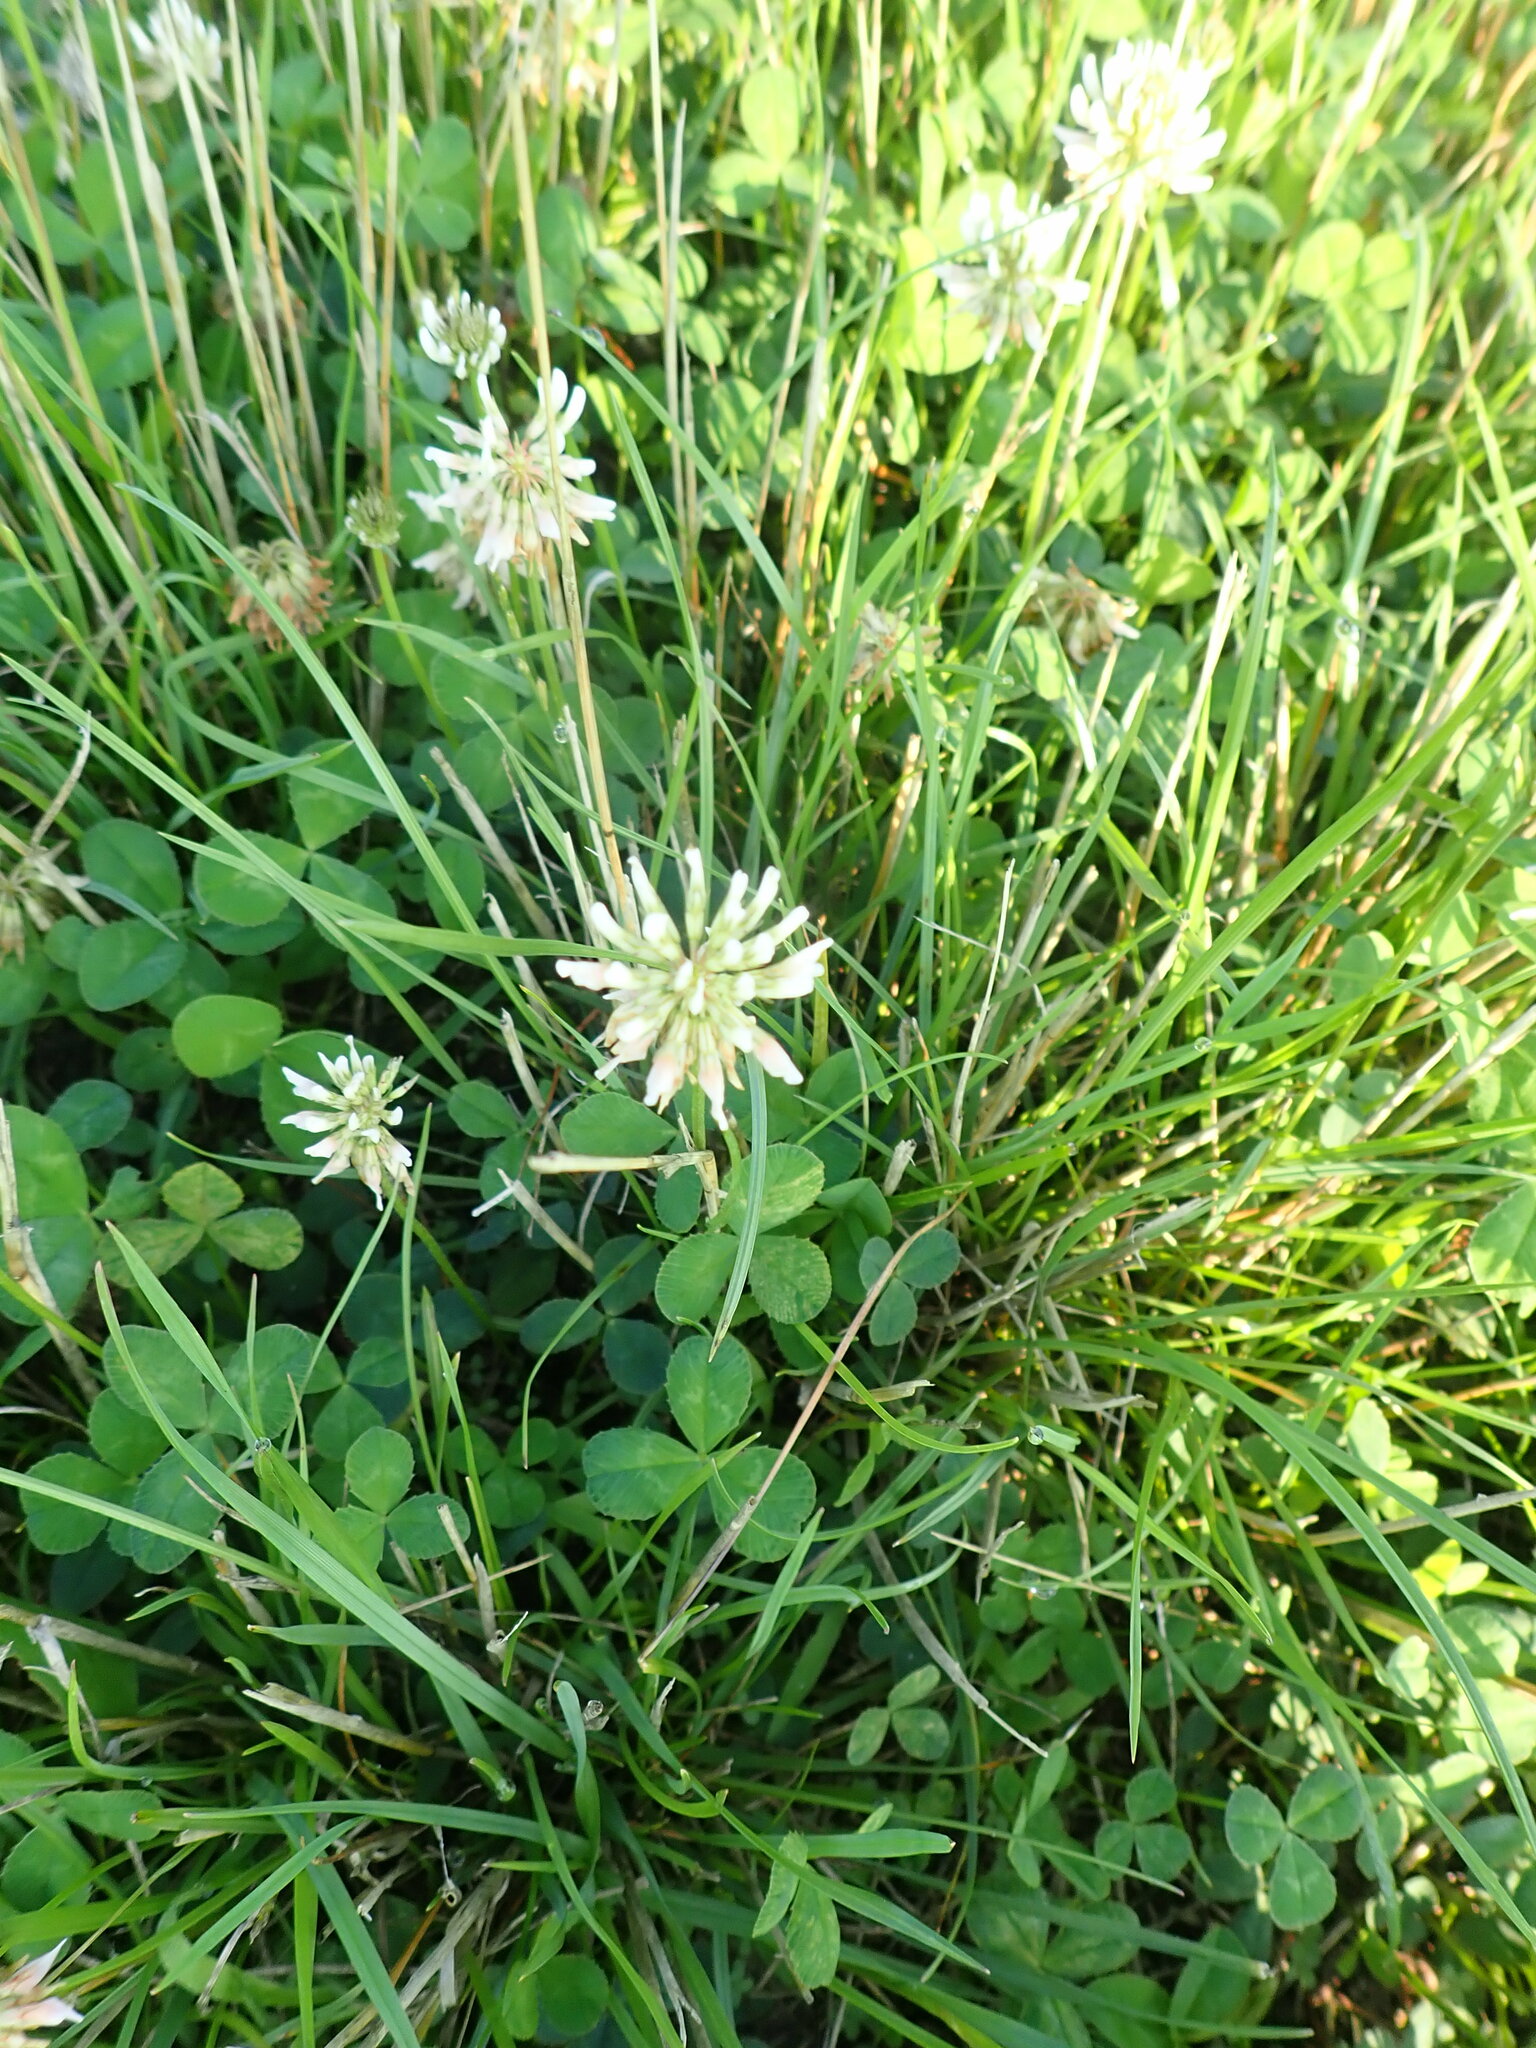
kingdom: Plantae
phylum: Tracheophyta
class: Magnoliopsida
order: Fabales
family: Fabaceae
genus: Trifolium
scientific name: Trifolium repens
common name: White clover
